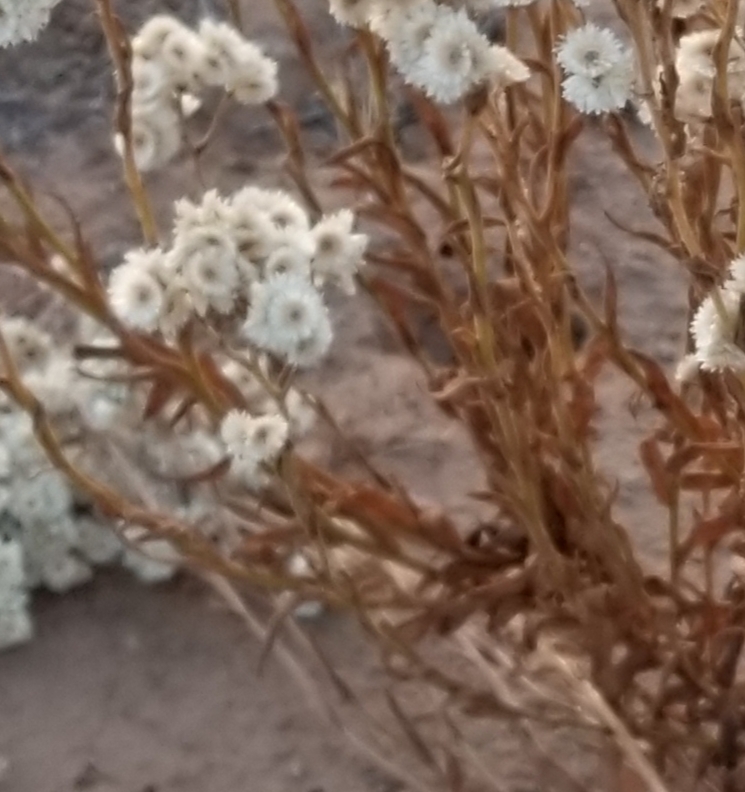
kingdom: Plantae
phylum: Tracheophyta
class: Magnoliopsida
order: Asterales
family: Asteraceae
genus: Pseudognaphalium
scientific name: Pseudognaphalium californicum
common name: California rabbit-tobacco
